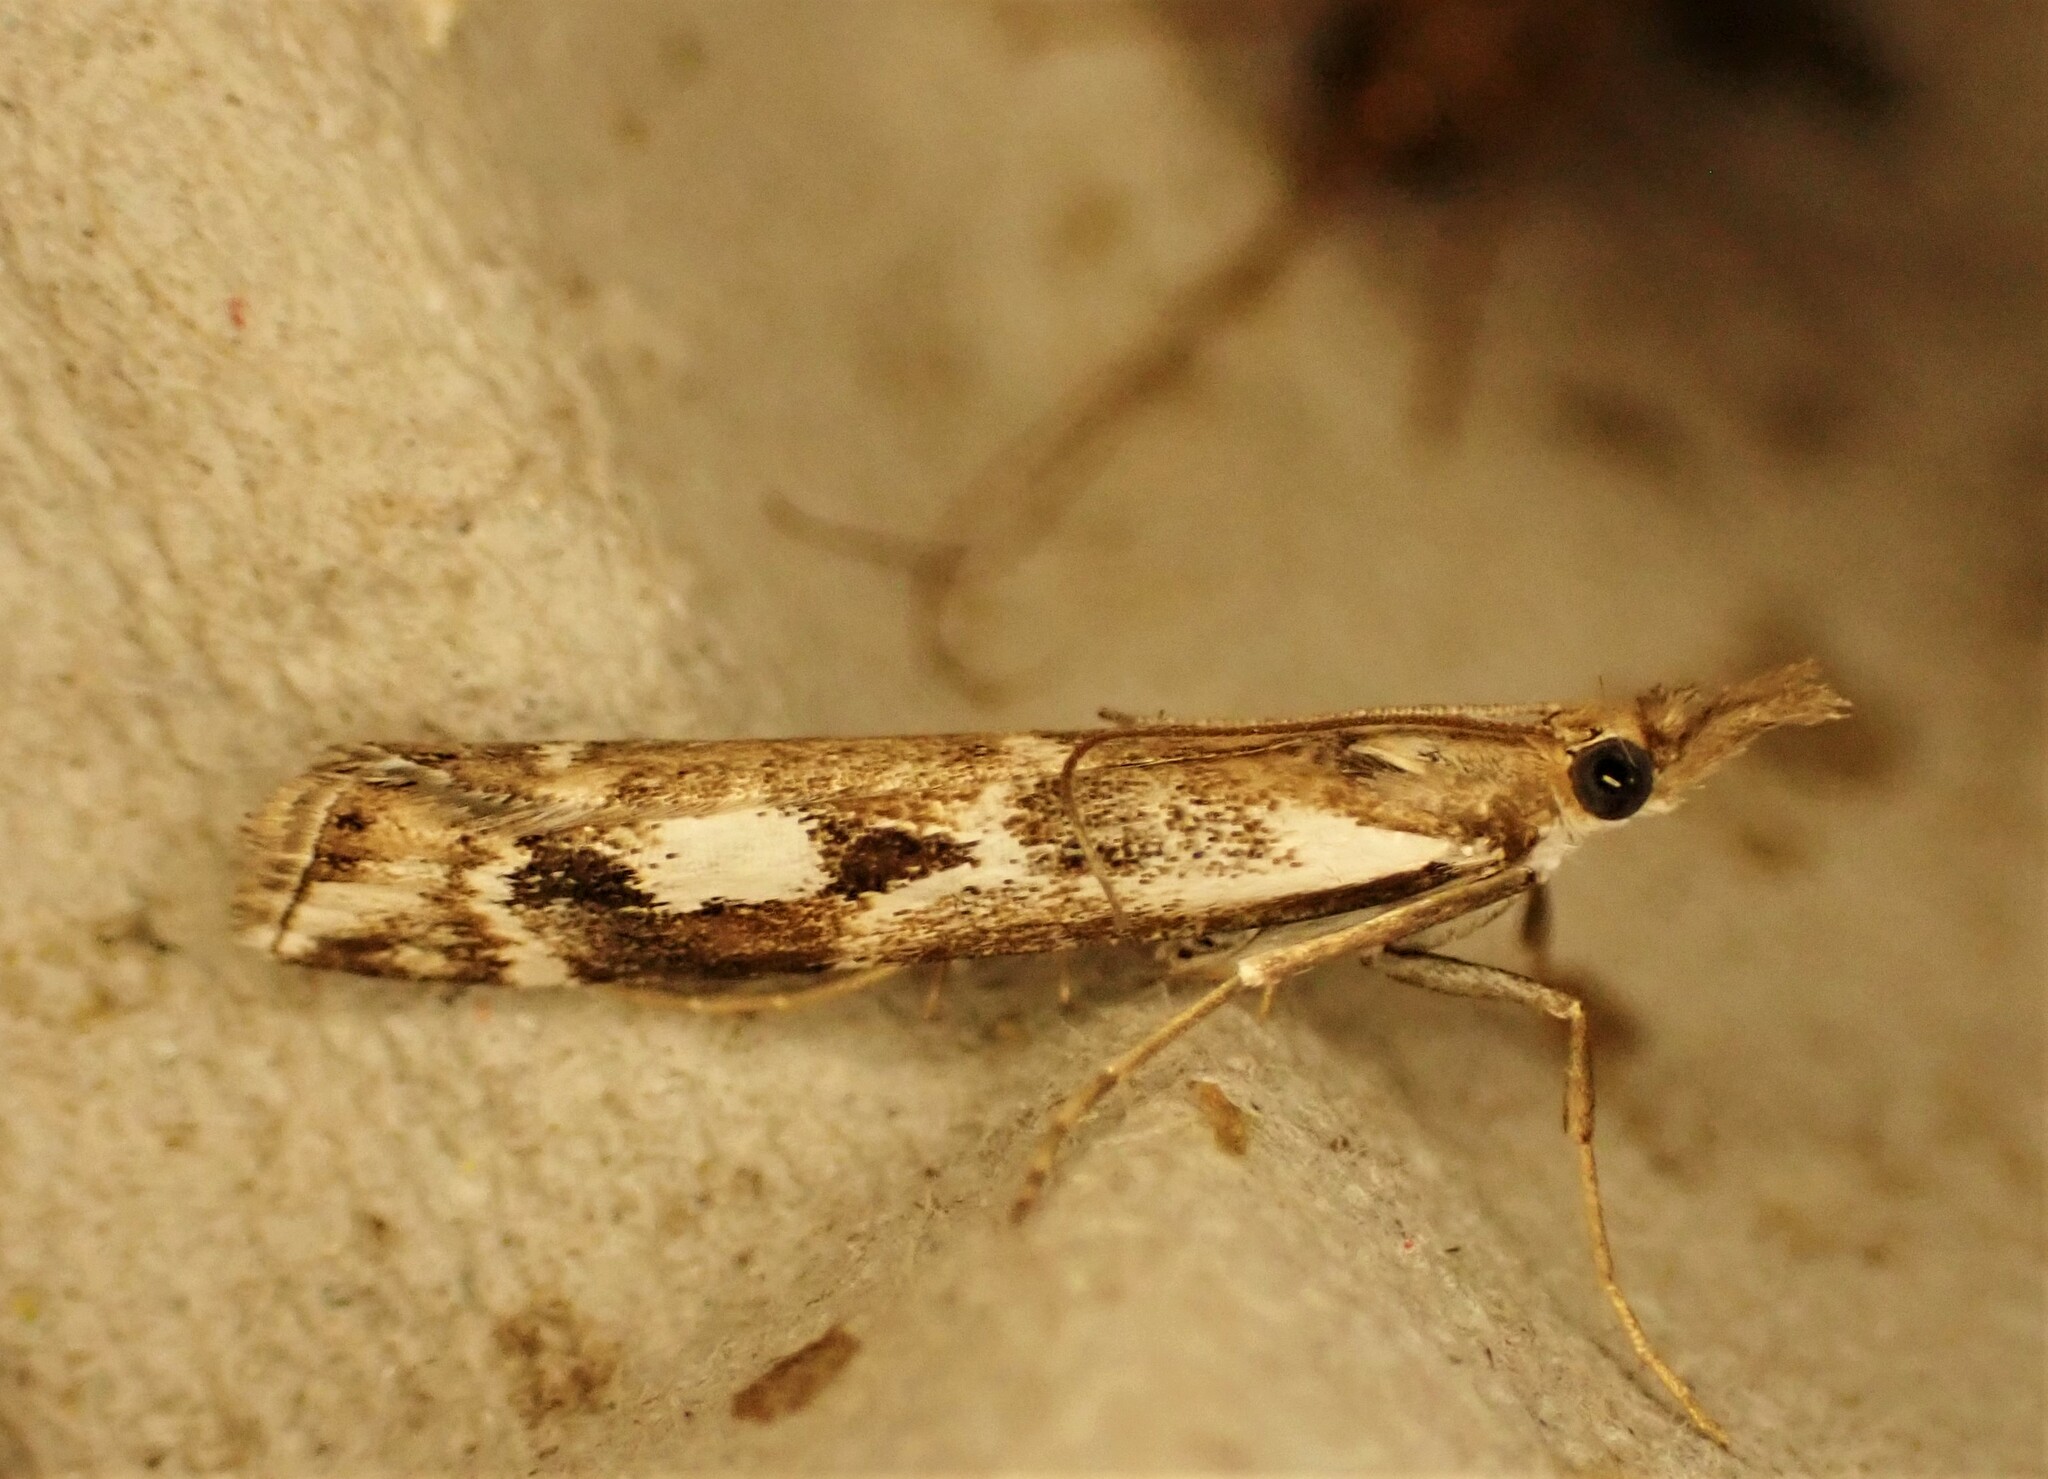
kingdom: Animalia
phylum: Arthropoda
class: Insecta
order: Lepidoptera
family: Crambidae
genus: Orocrambus
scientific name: Orocrambus vulgaris
